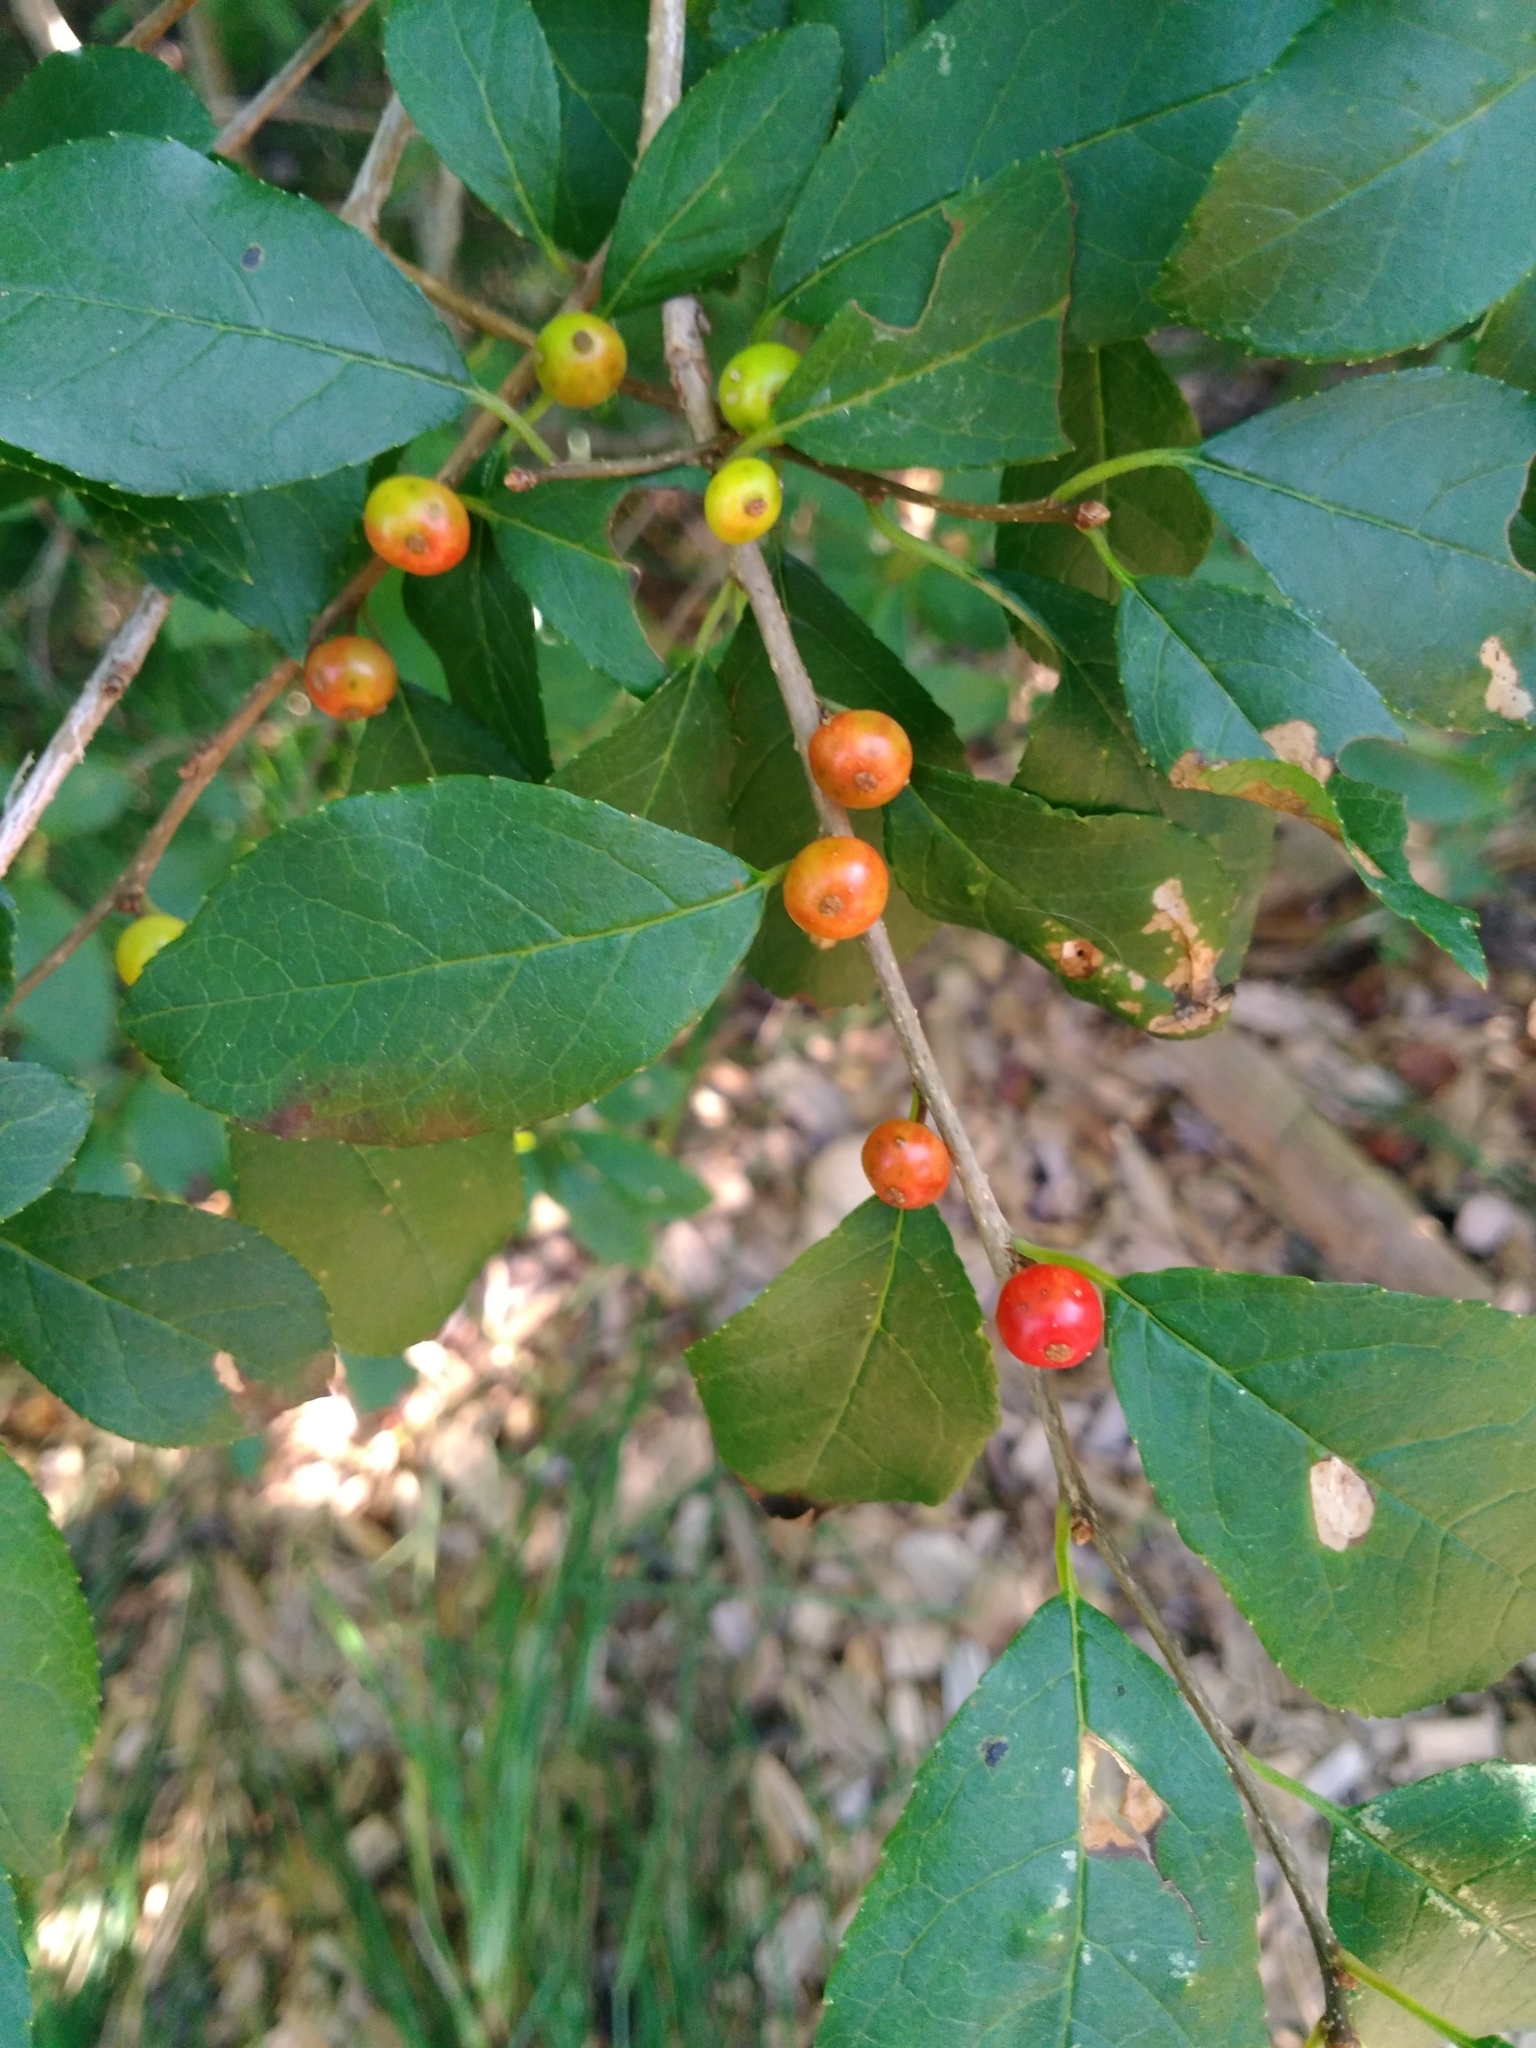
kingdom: Plantae
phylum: Tracheophyta
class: Magnoliopsida
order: Aquifoliales
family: Aquifoliaceae
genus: Ilex
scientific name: Ilex verticillata
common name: Virginia winterberry
